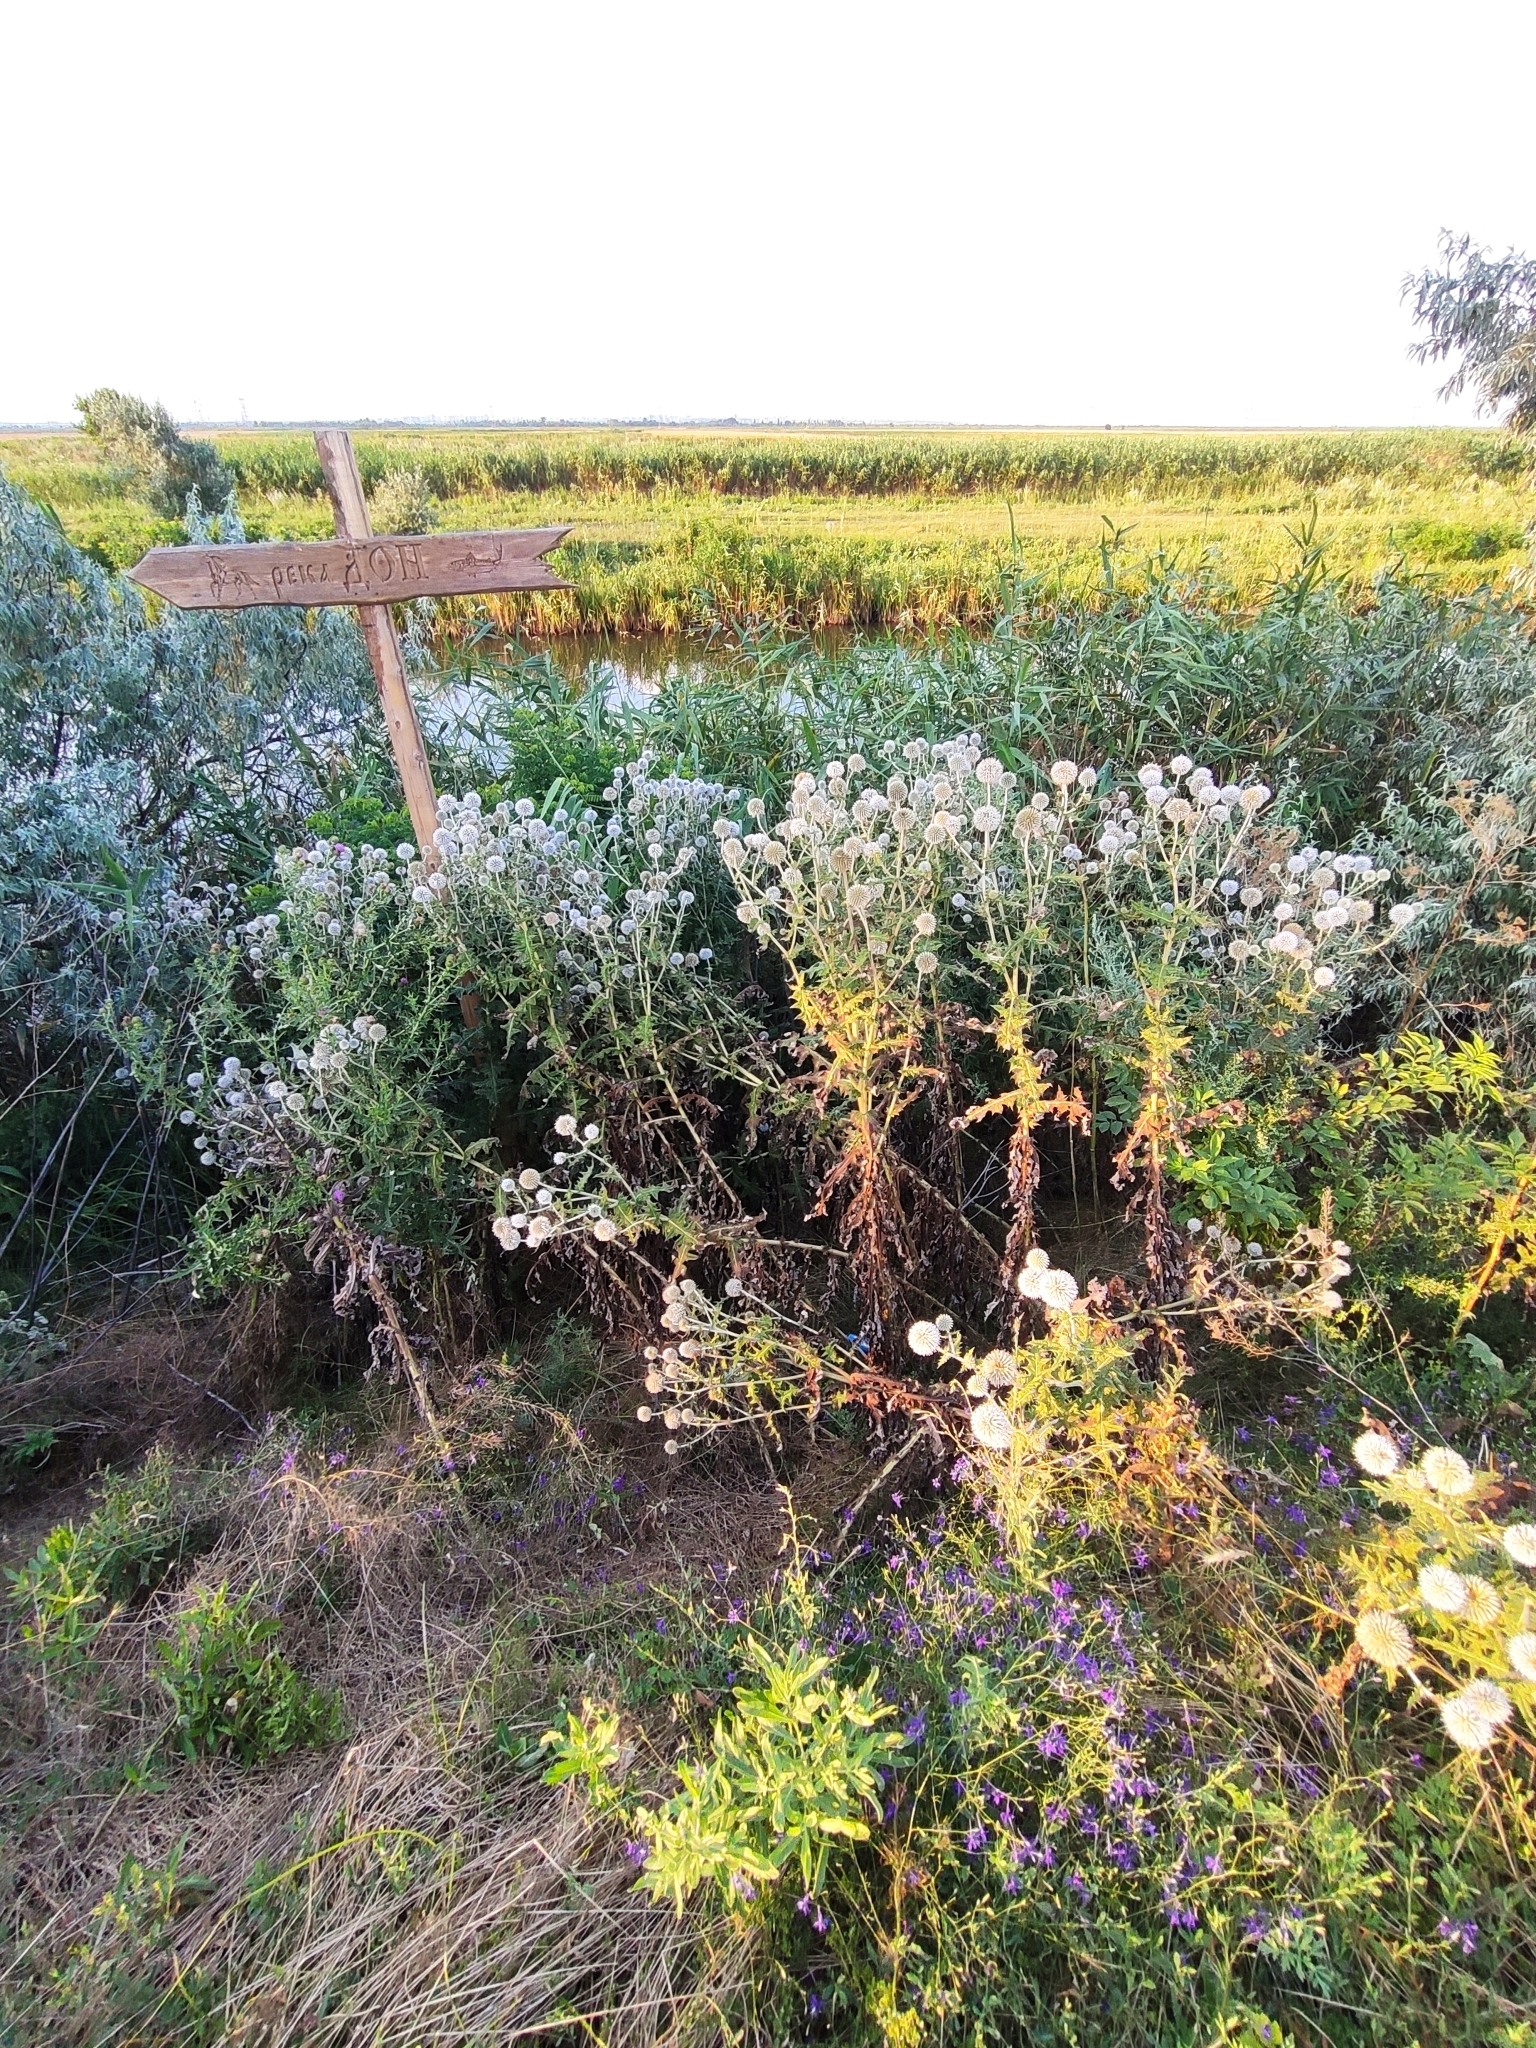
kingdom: Plantae
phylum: Tracheophyta
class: Magnoliopsida
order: Asterales
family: Asteraceae
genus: Echinops
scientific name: Echinops sphaerocephalus
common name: Glandular globe-thistle
